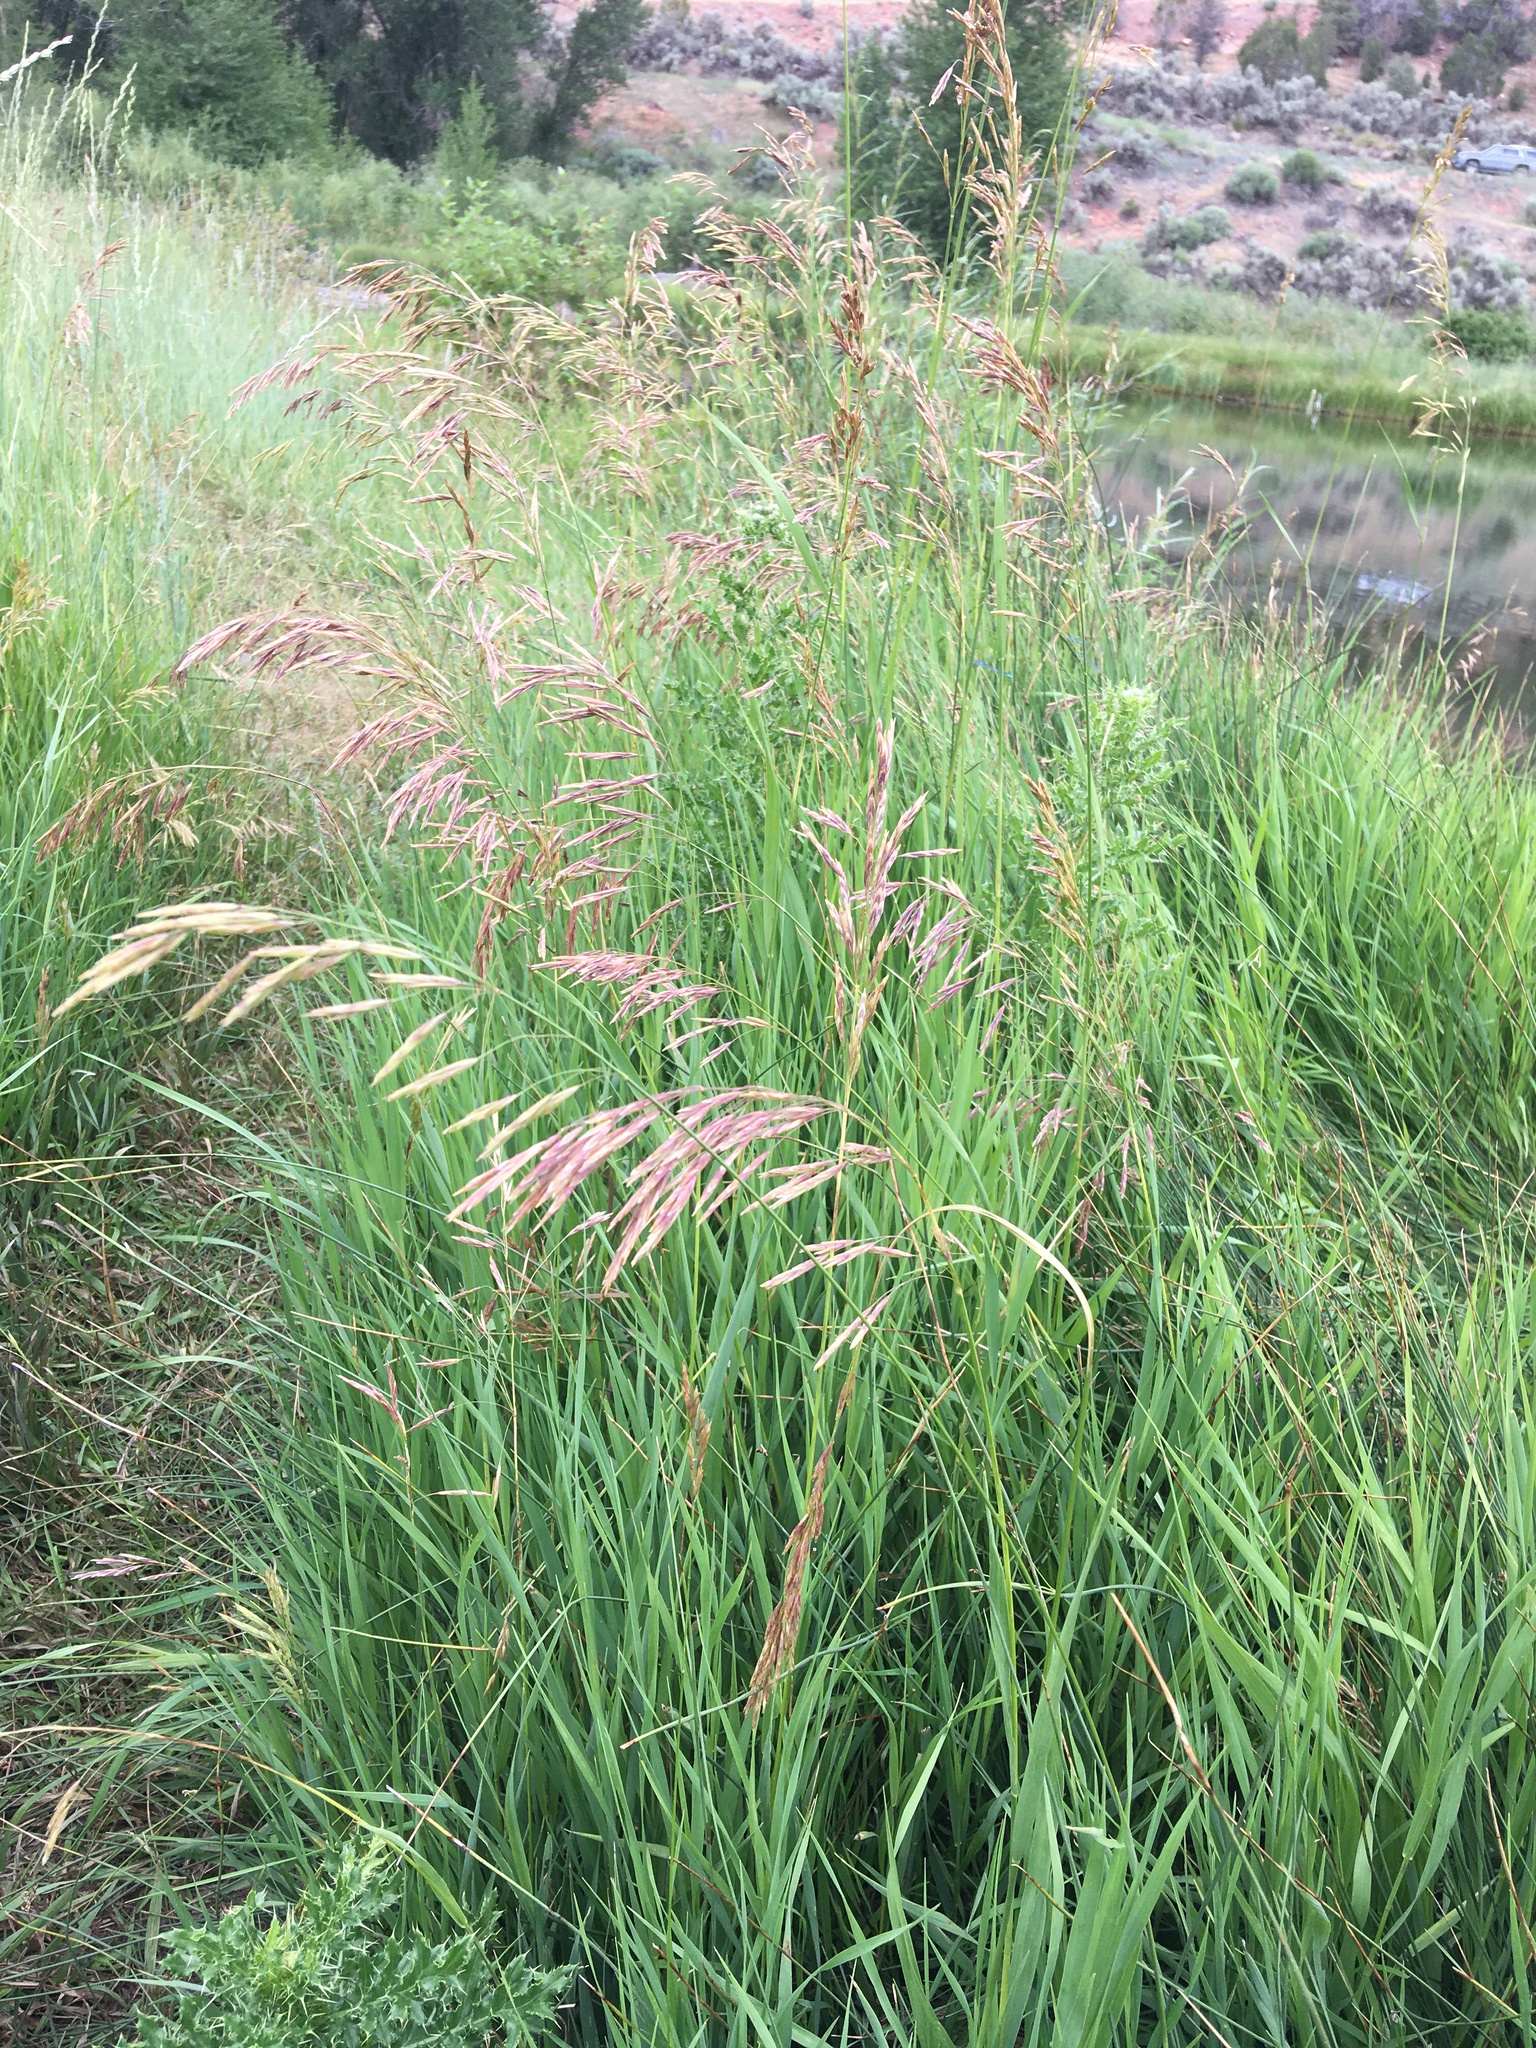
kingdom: Plantae
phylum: Tracheophyta
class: Liliopsida
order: Poales
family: Poaceae
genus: Bromus
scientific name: Bromus inermis
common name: Smooth brome
